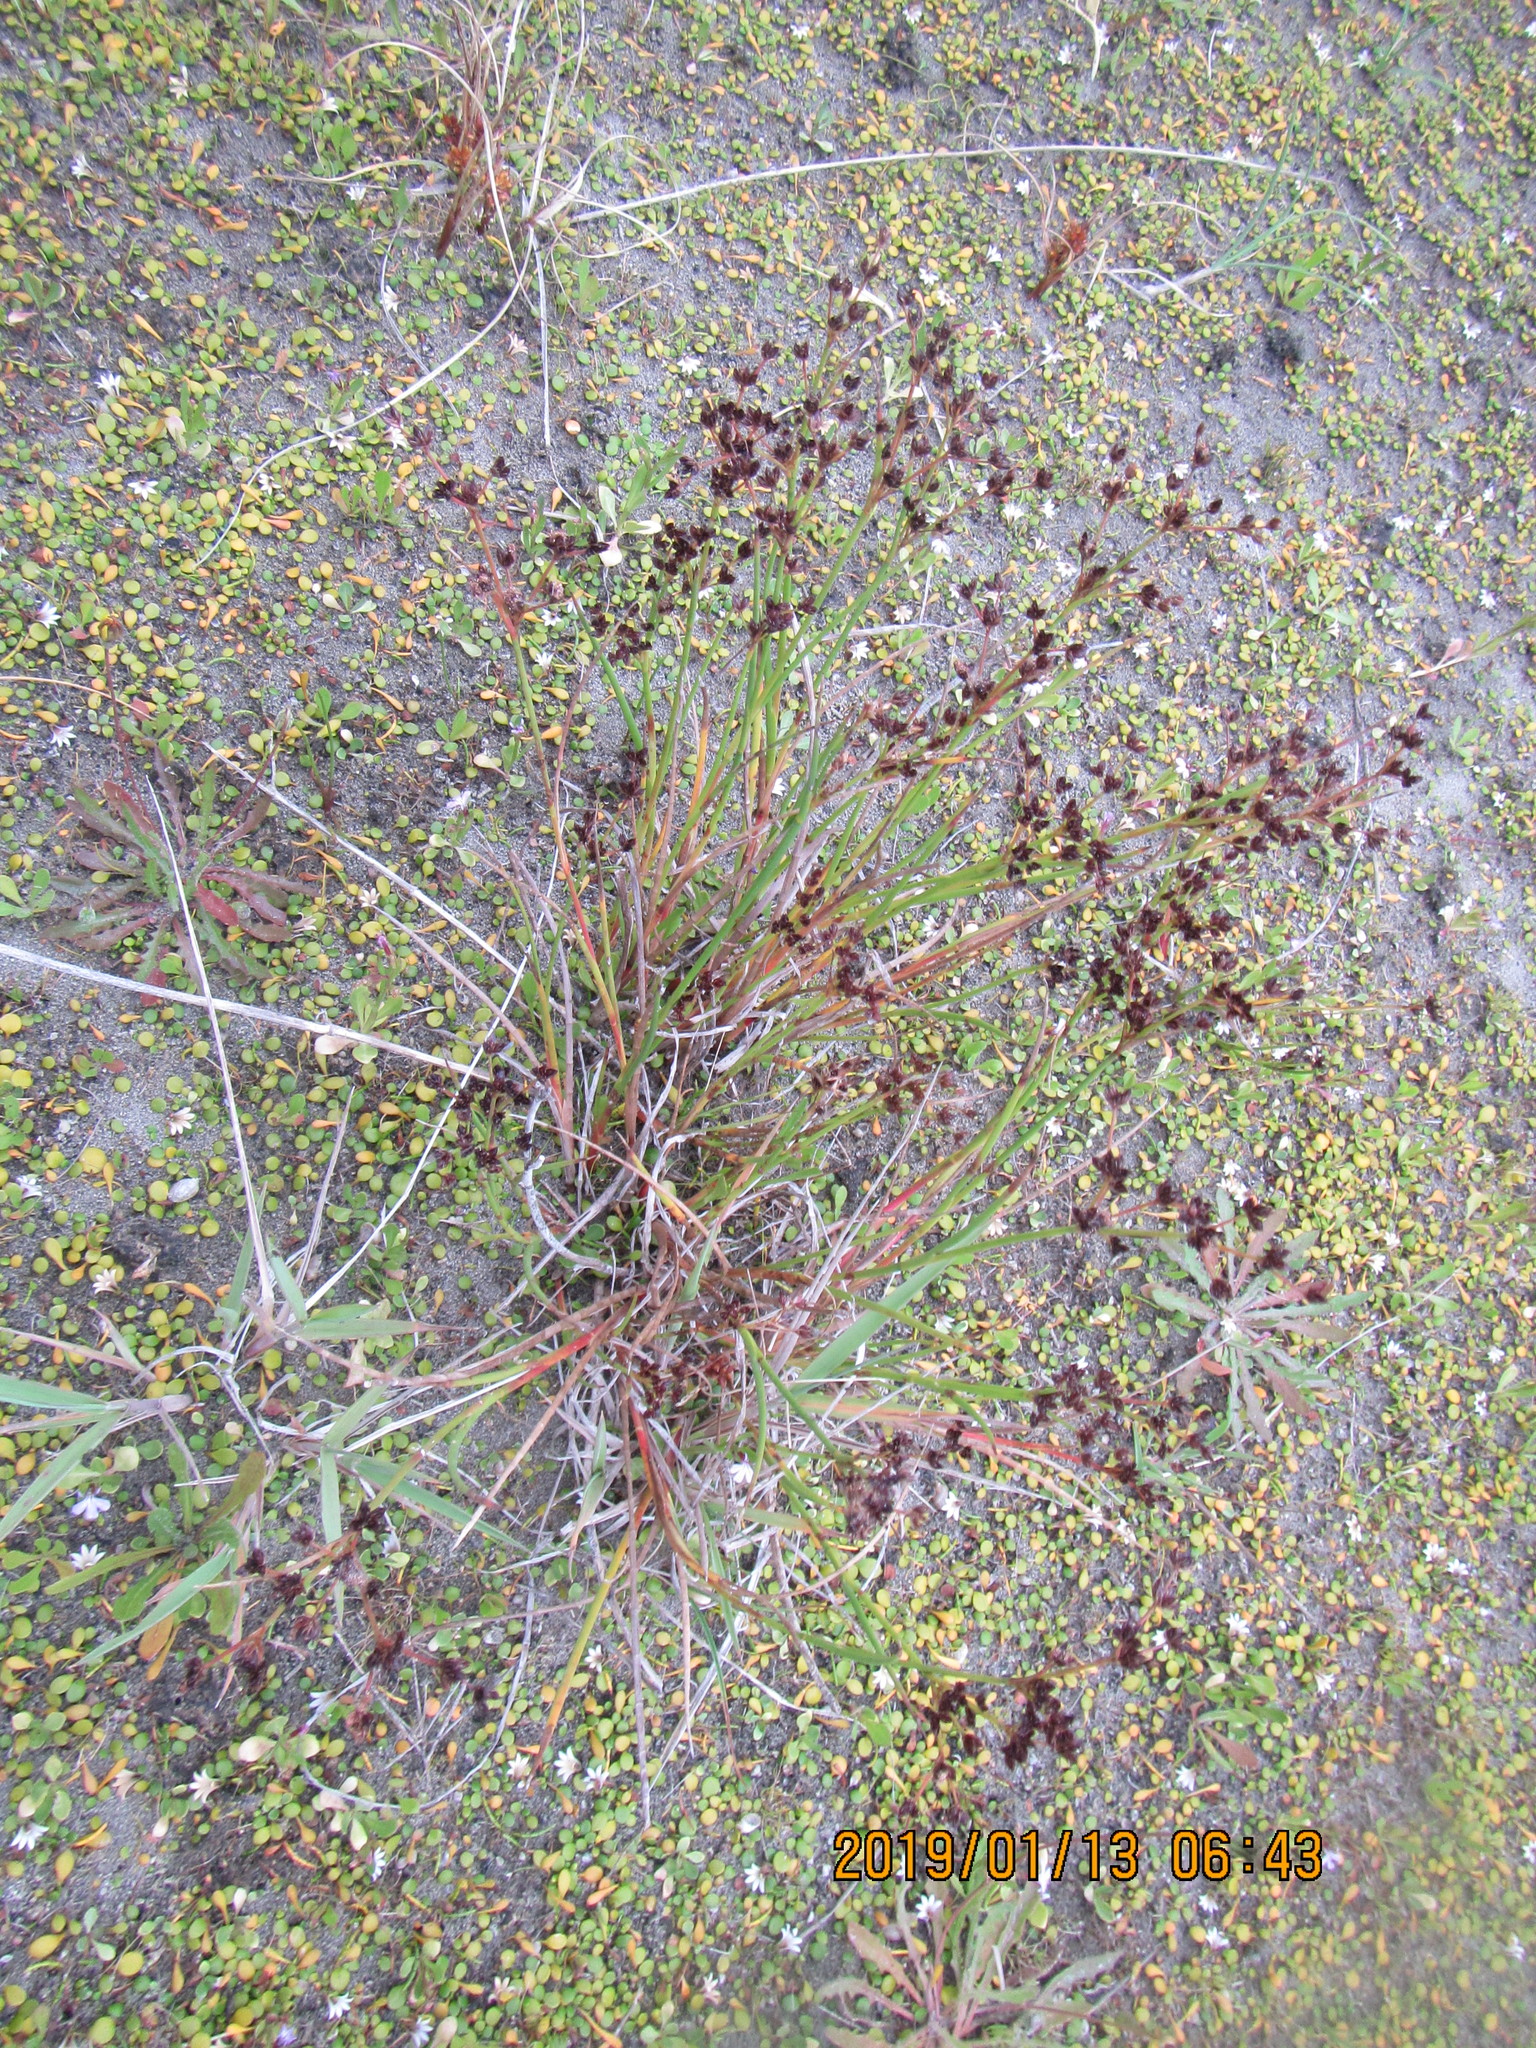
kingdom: Plantae
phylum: Tracheophyta
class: Liliopsida
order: Poales
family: Juncaceae
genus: Juncus
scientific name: Juncus articulatus
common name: Jointed rush
